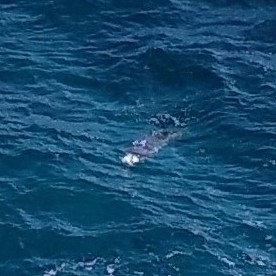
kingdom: Animalia
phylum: Chordata
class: Mammalia
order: Carnivora
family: Phocidae
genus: Monachus
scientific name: Monachus monachus
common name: Mediterranean monk seal
